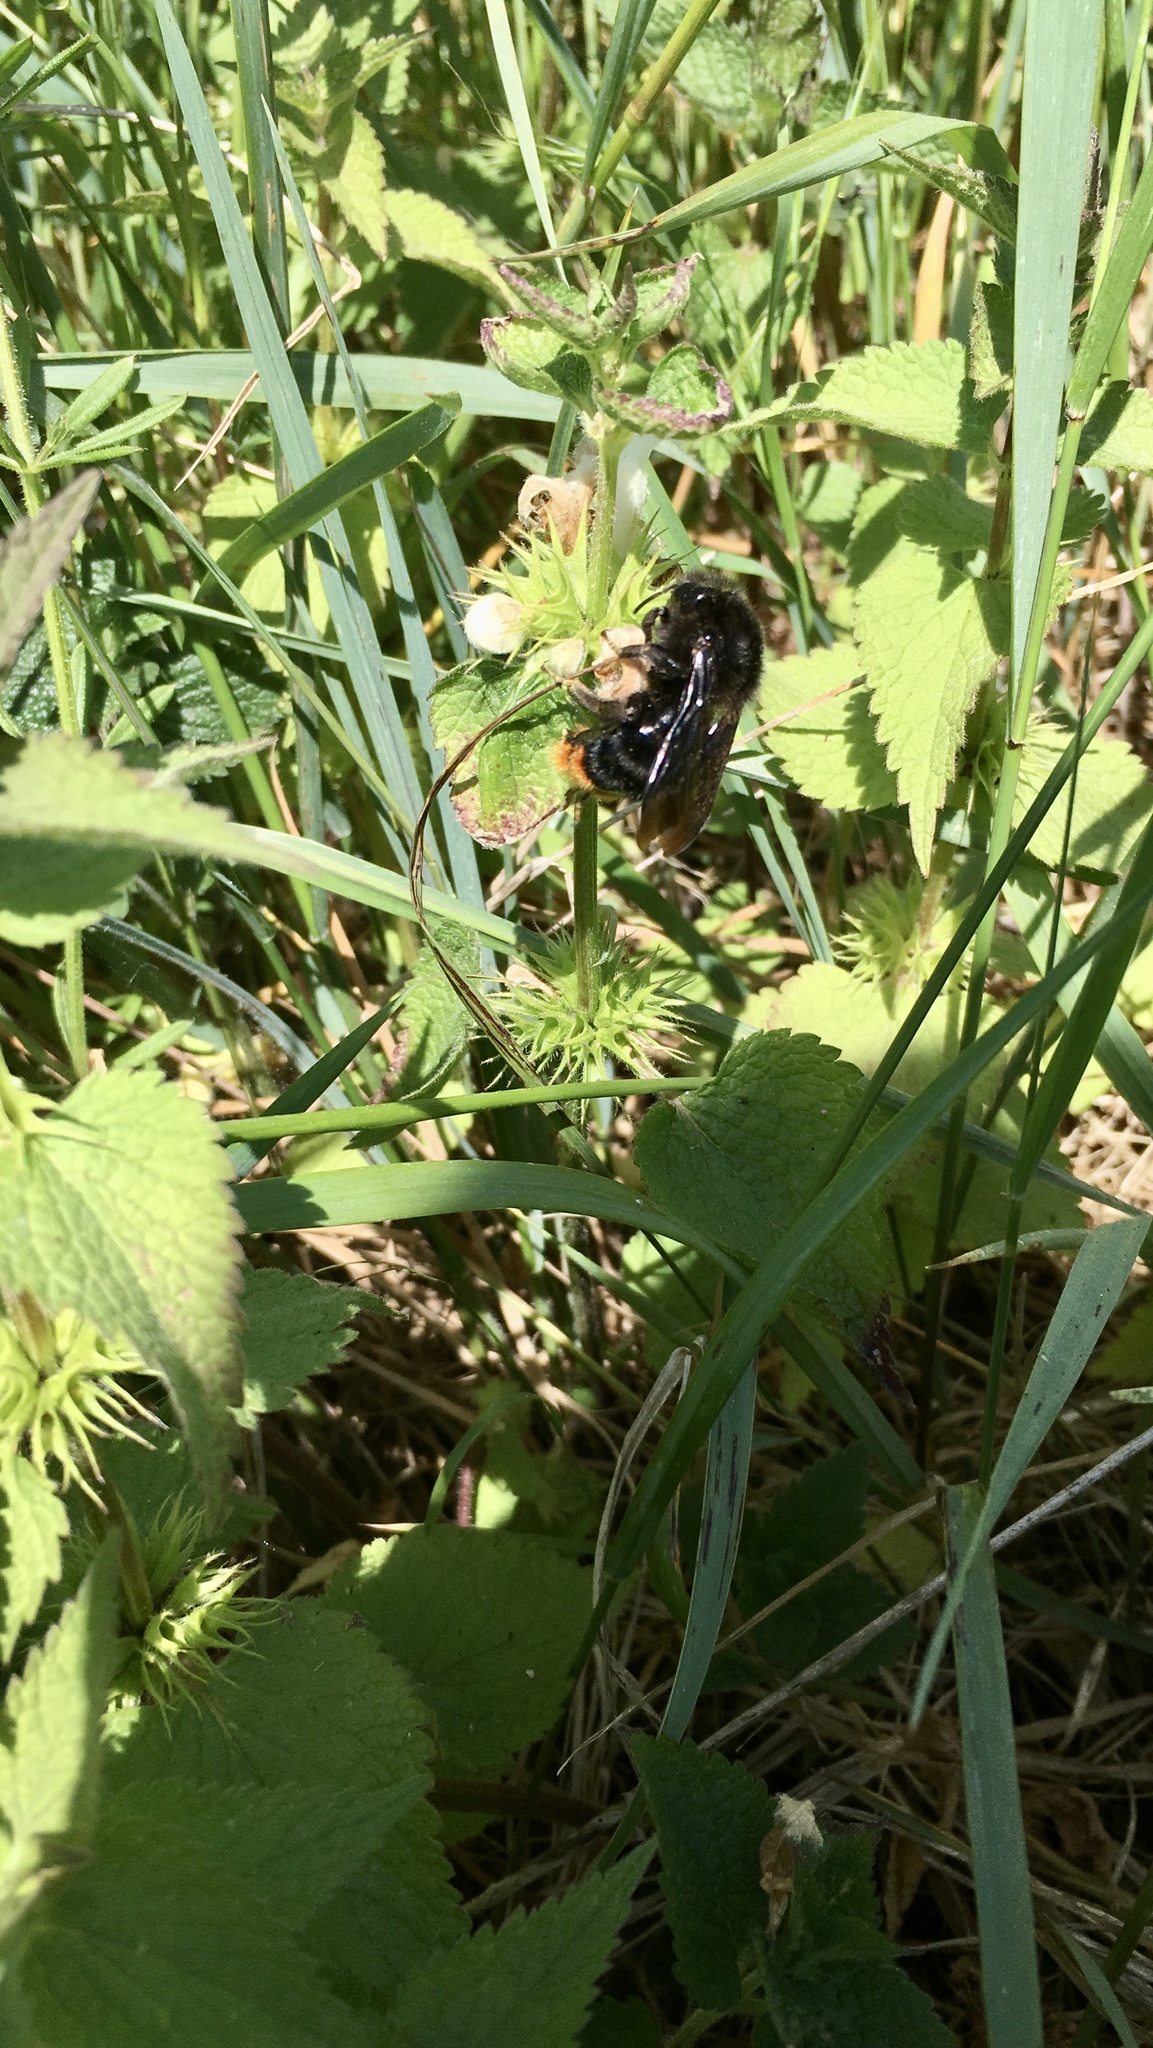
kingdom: Animalia
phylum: Arthropoda
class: Insecta
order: Hymenoptera
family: Apidae
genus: Bombus
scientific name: Bombus rupestris
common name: Hill cuckoo-bee
